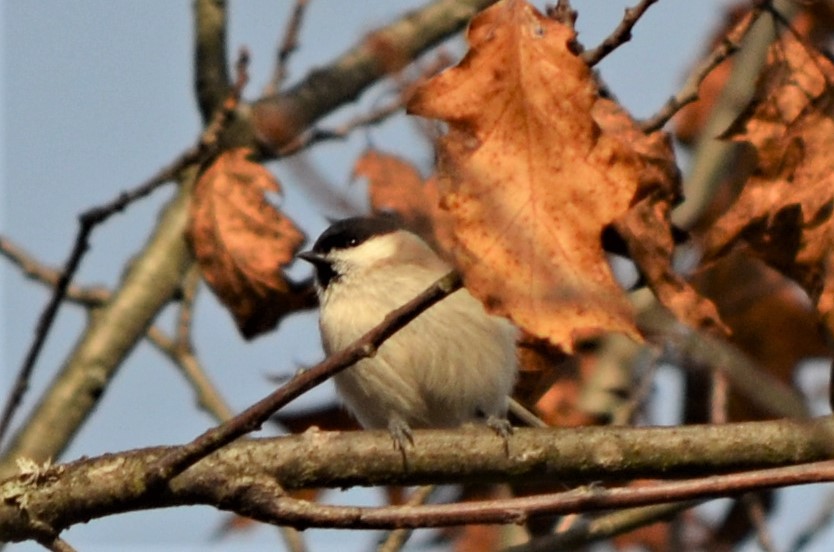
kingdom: Animalia
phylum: Chordata
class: Aves
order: Passeriformes
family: Paridae
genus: Poecile
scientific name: Poecile palustris
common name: Marsh tit
